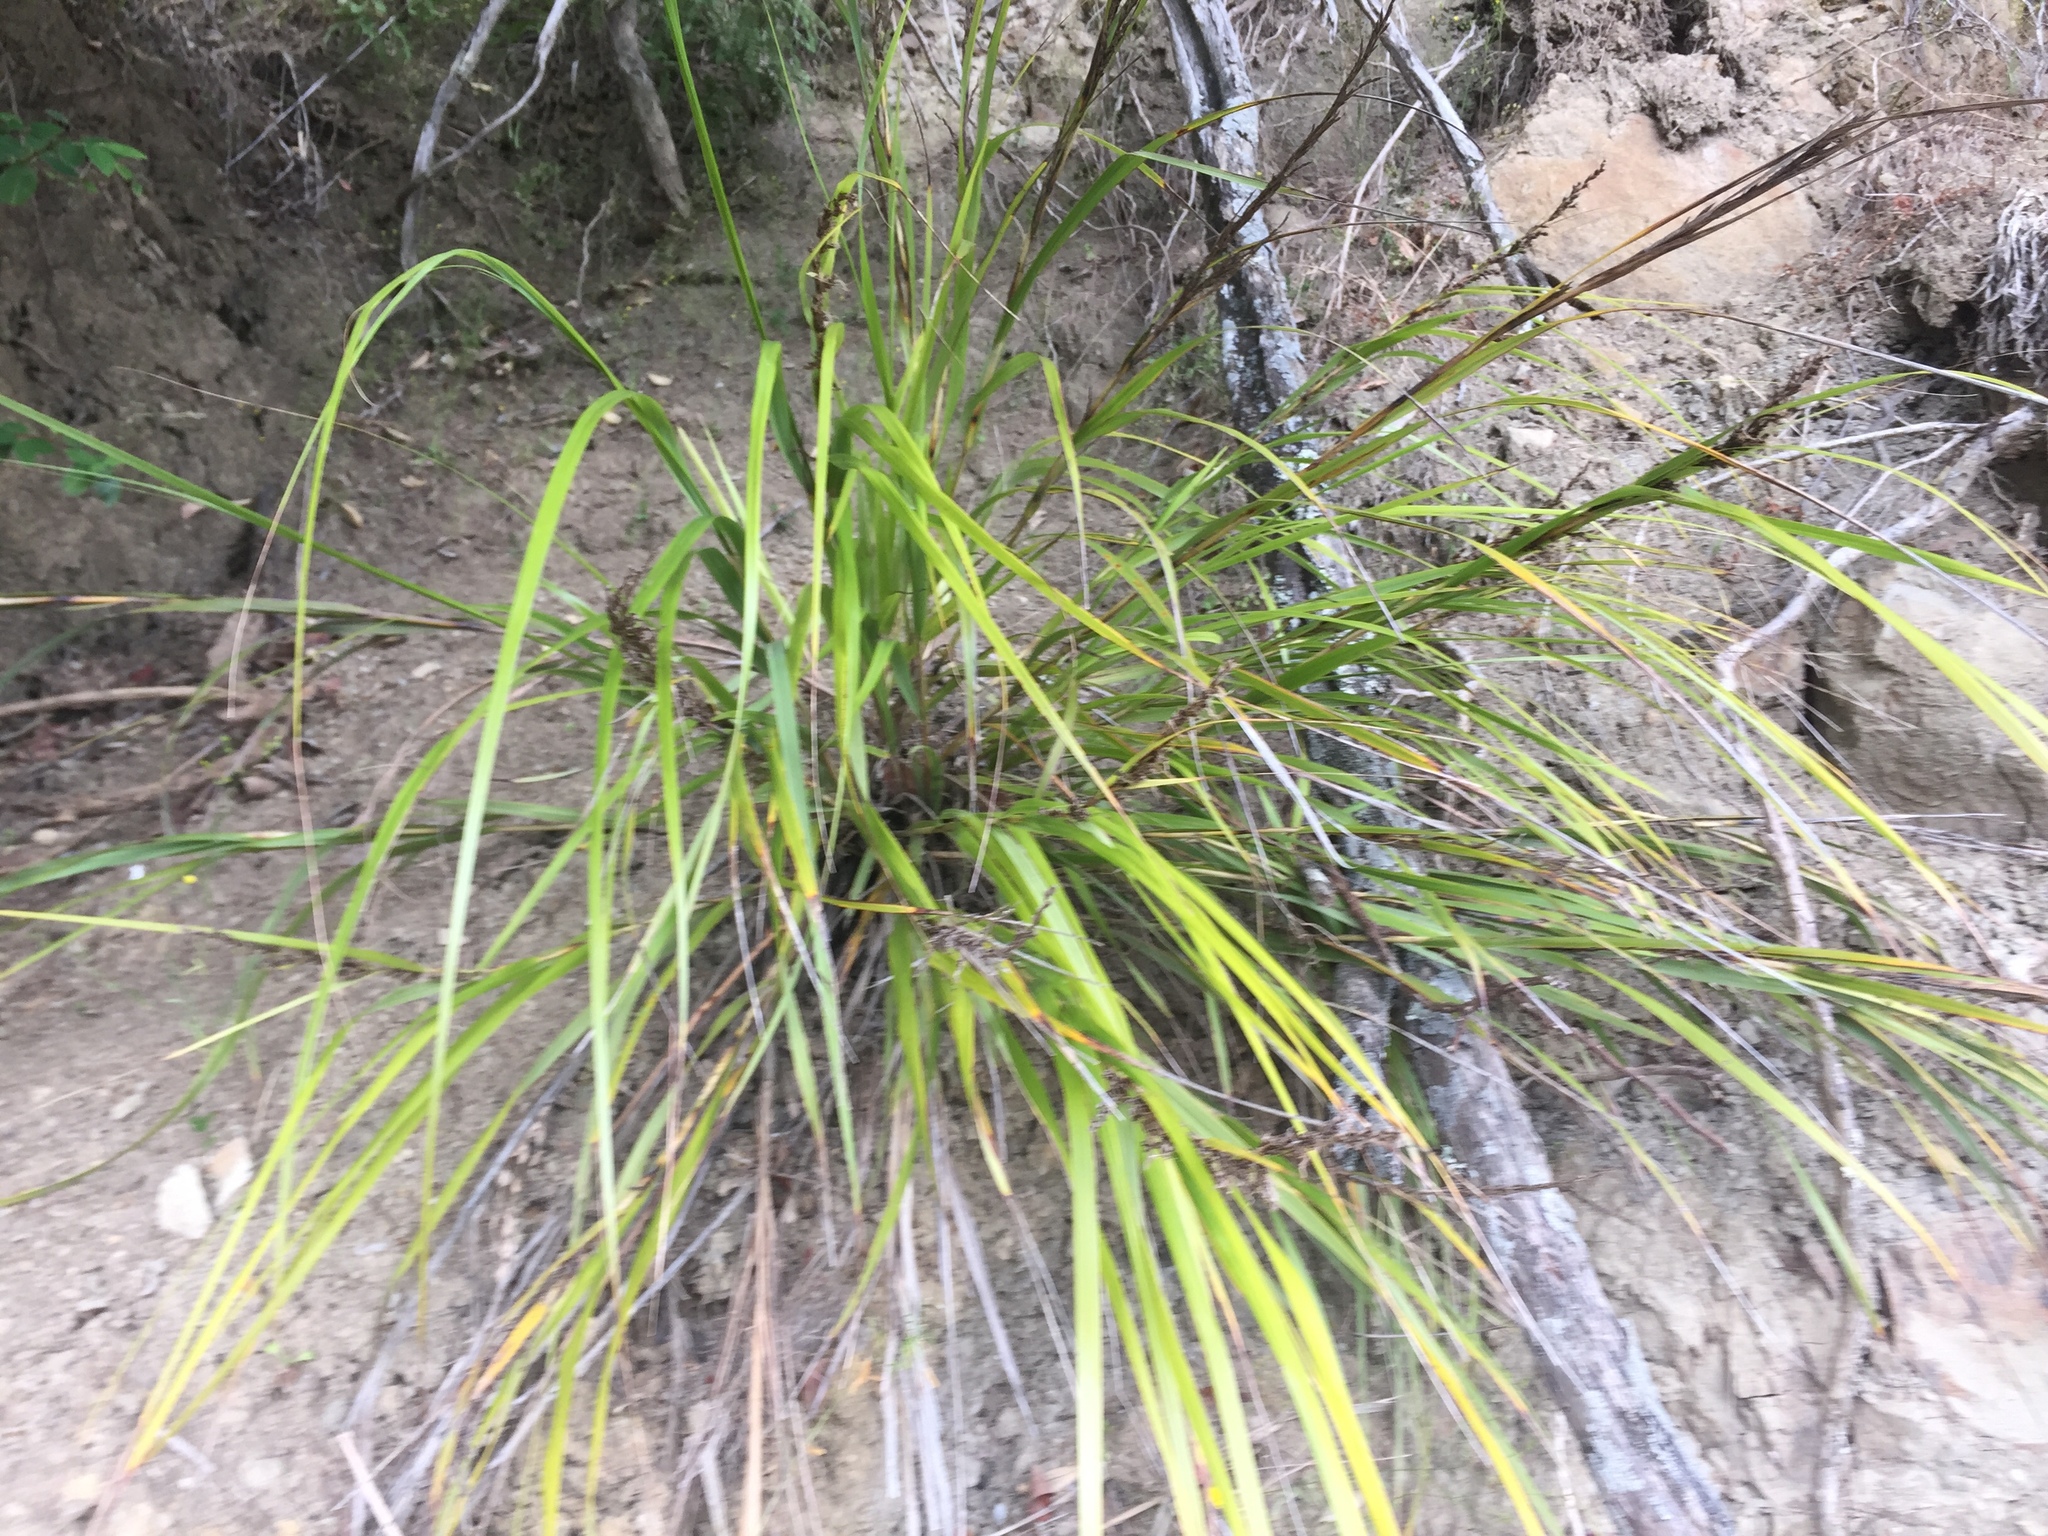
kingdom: Plantae
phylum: Tracheophyta
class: Liliopsida
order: Poales
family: Cyperaceae
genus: Gahnia
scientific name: Gahnia lacera
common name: Sawsedge
